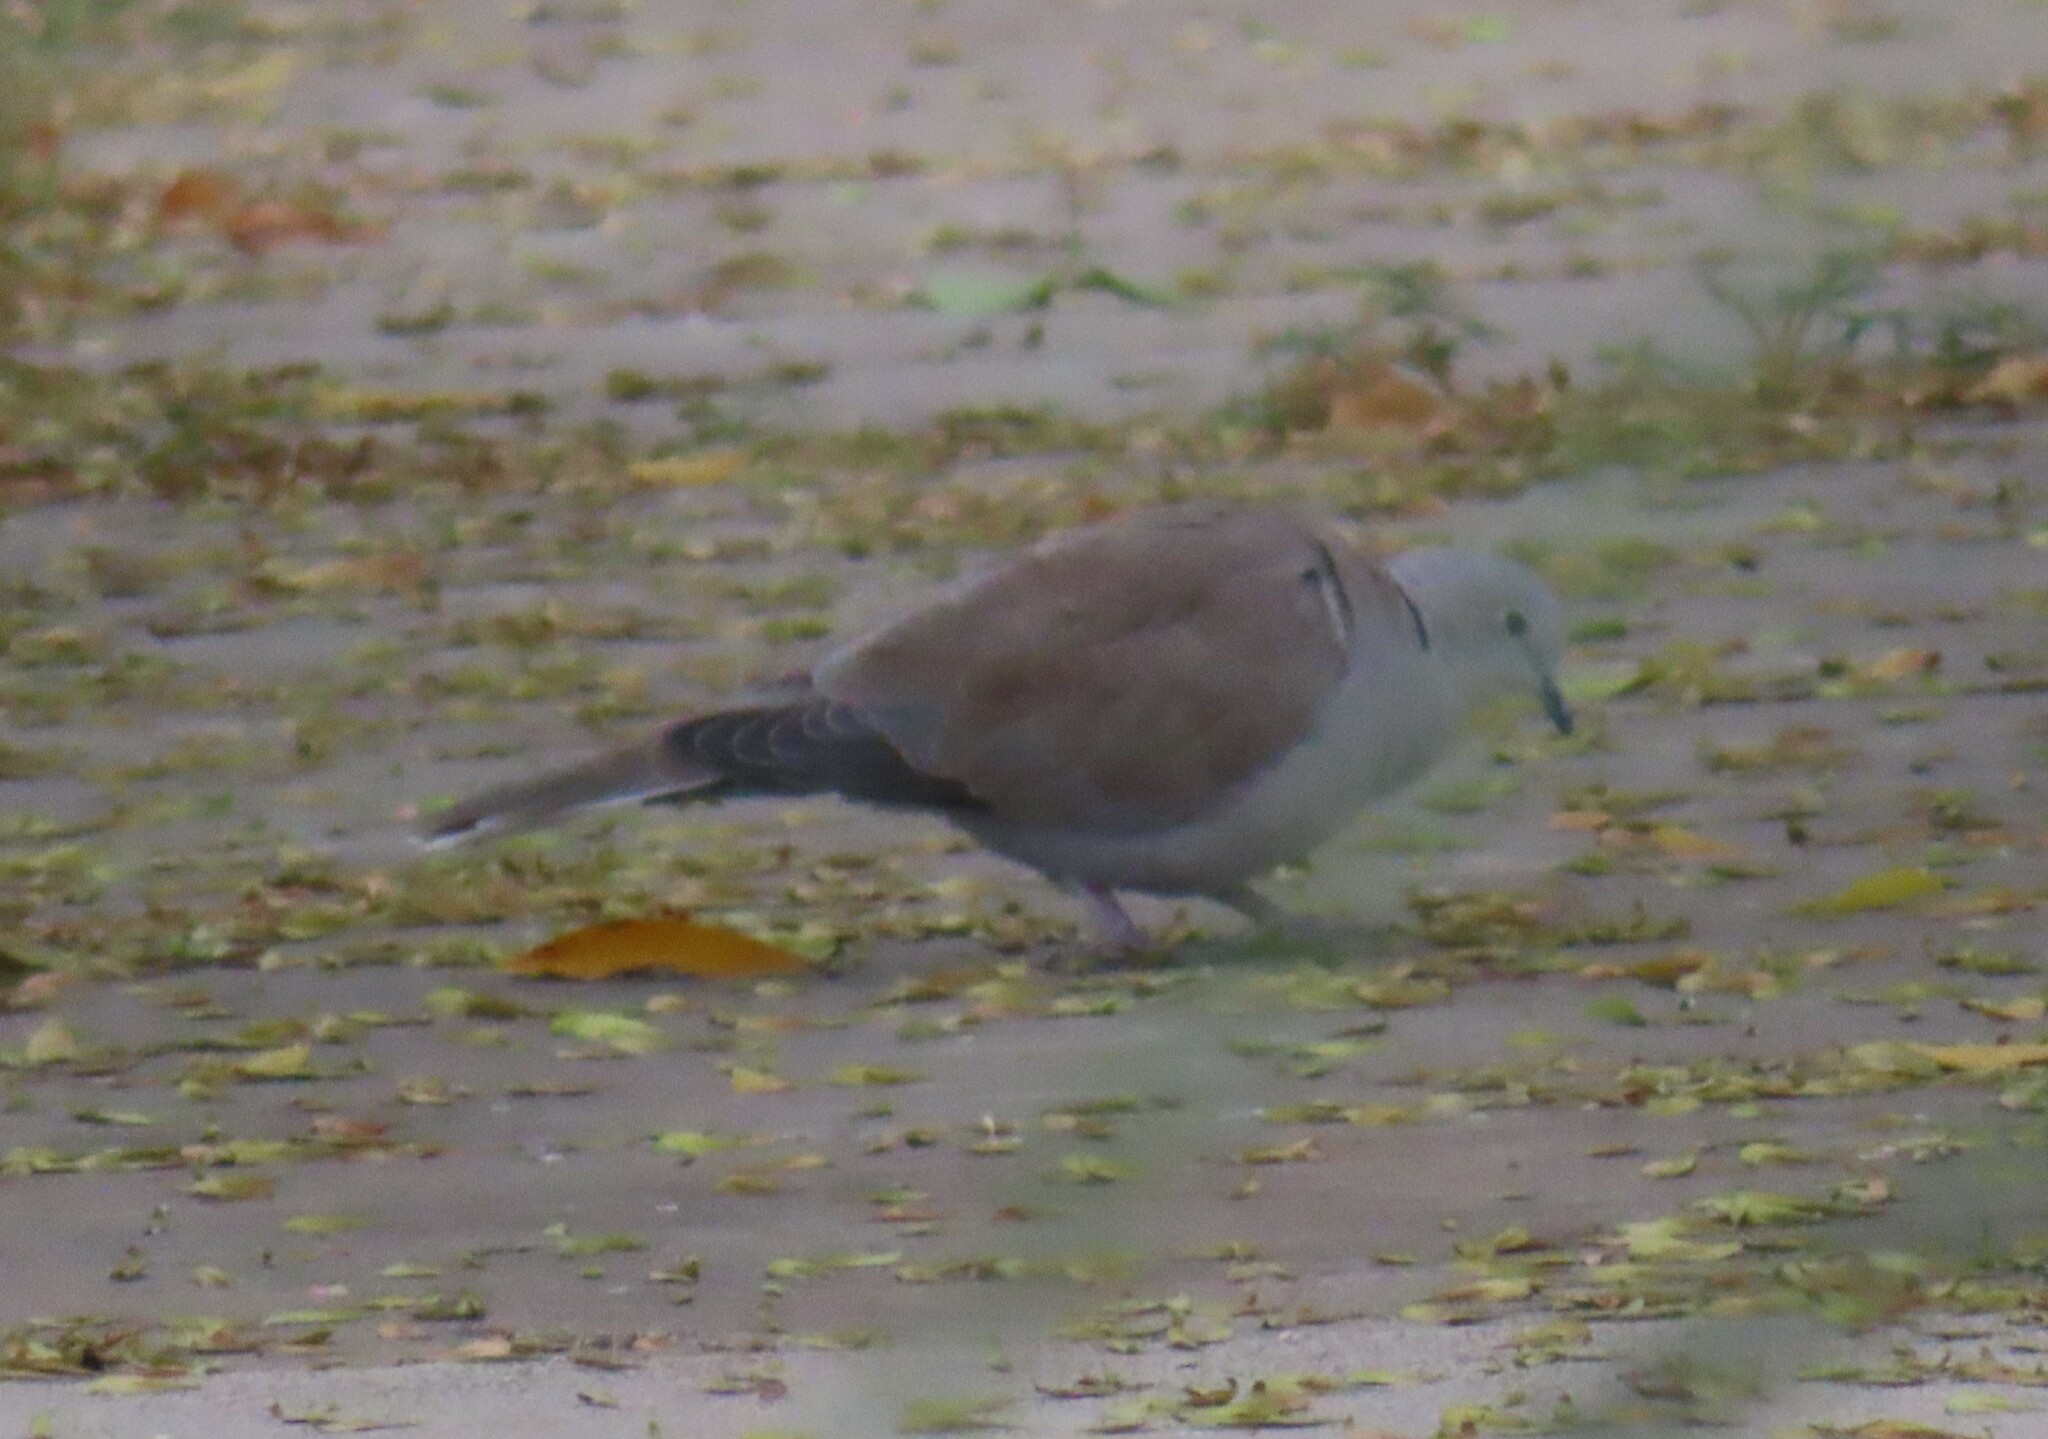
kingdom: Animalia
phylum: Chordata
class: Aves
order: Columbiformes
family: Columbidae
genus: Streptopelia
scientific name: Streptopelia decaocto
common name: Eurasian collared dove
